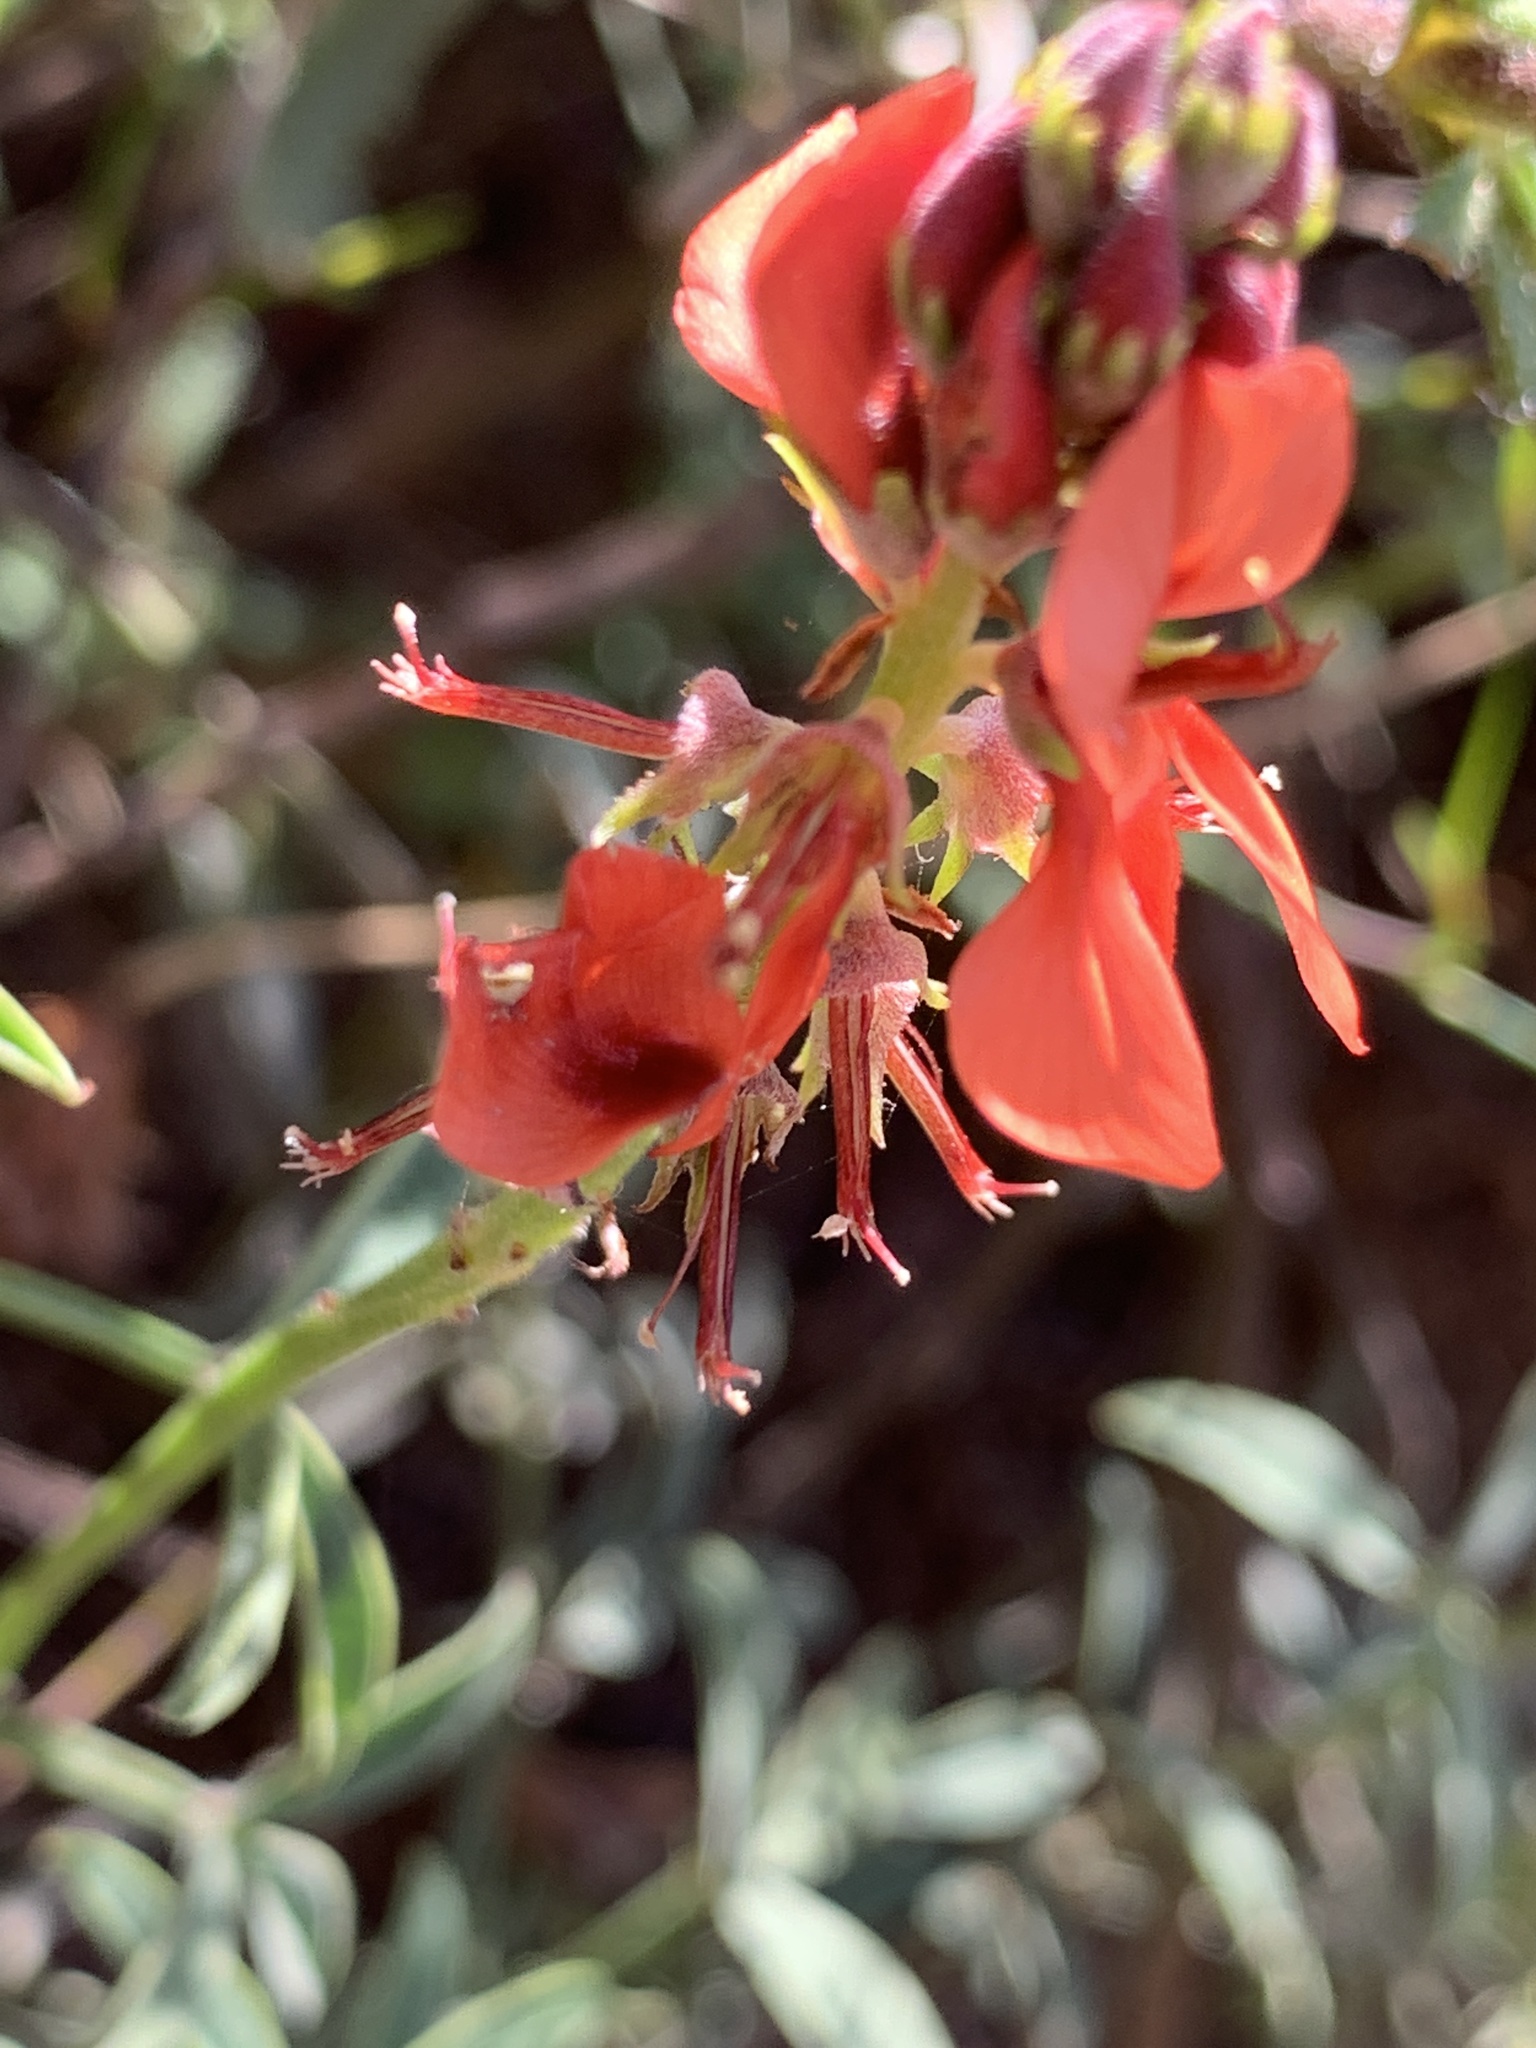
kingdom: Plantae
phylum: Tracheophyta
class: Magnoliopsida
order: Fabales
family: Fabaceae
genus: Indigofera
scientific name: Indigofera complanata
